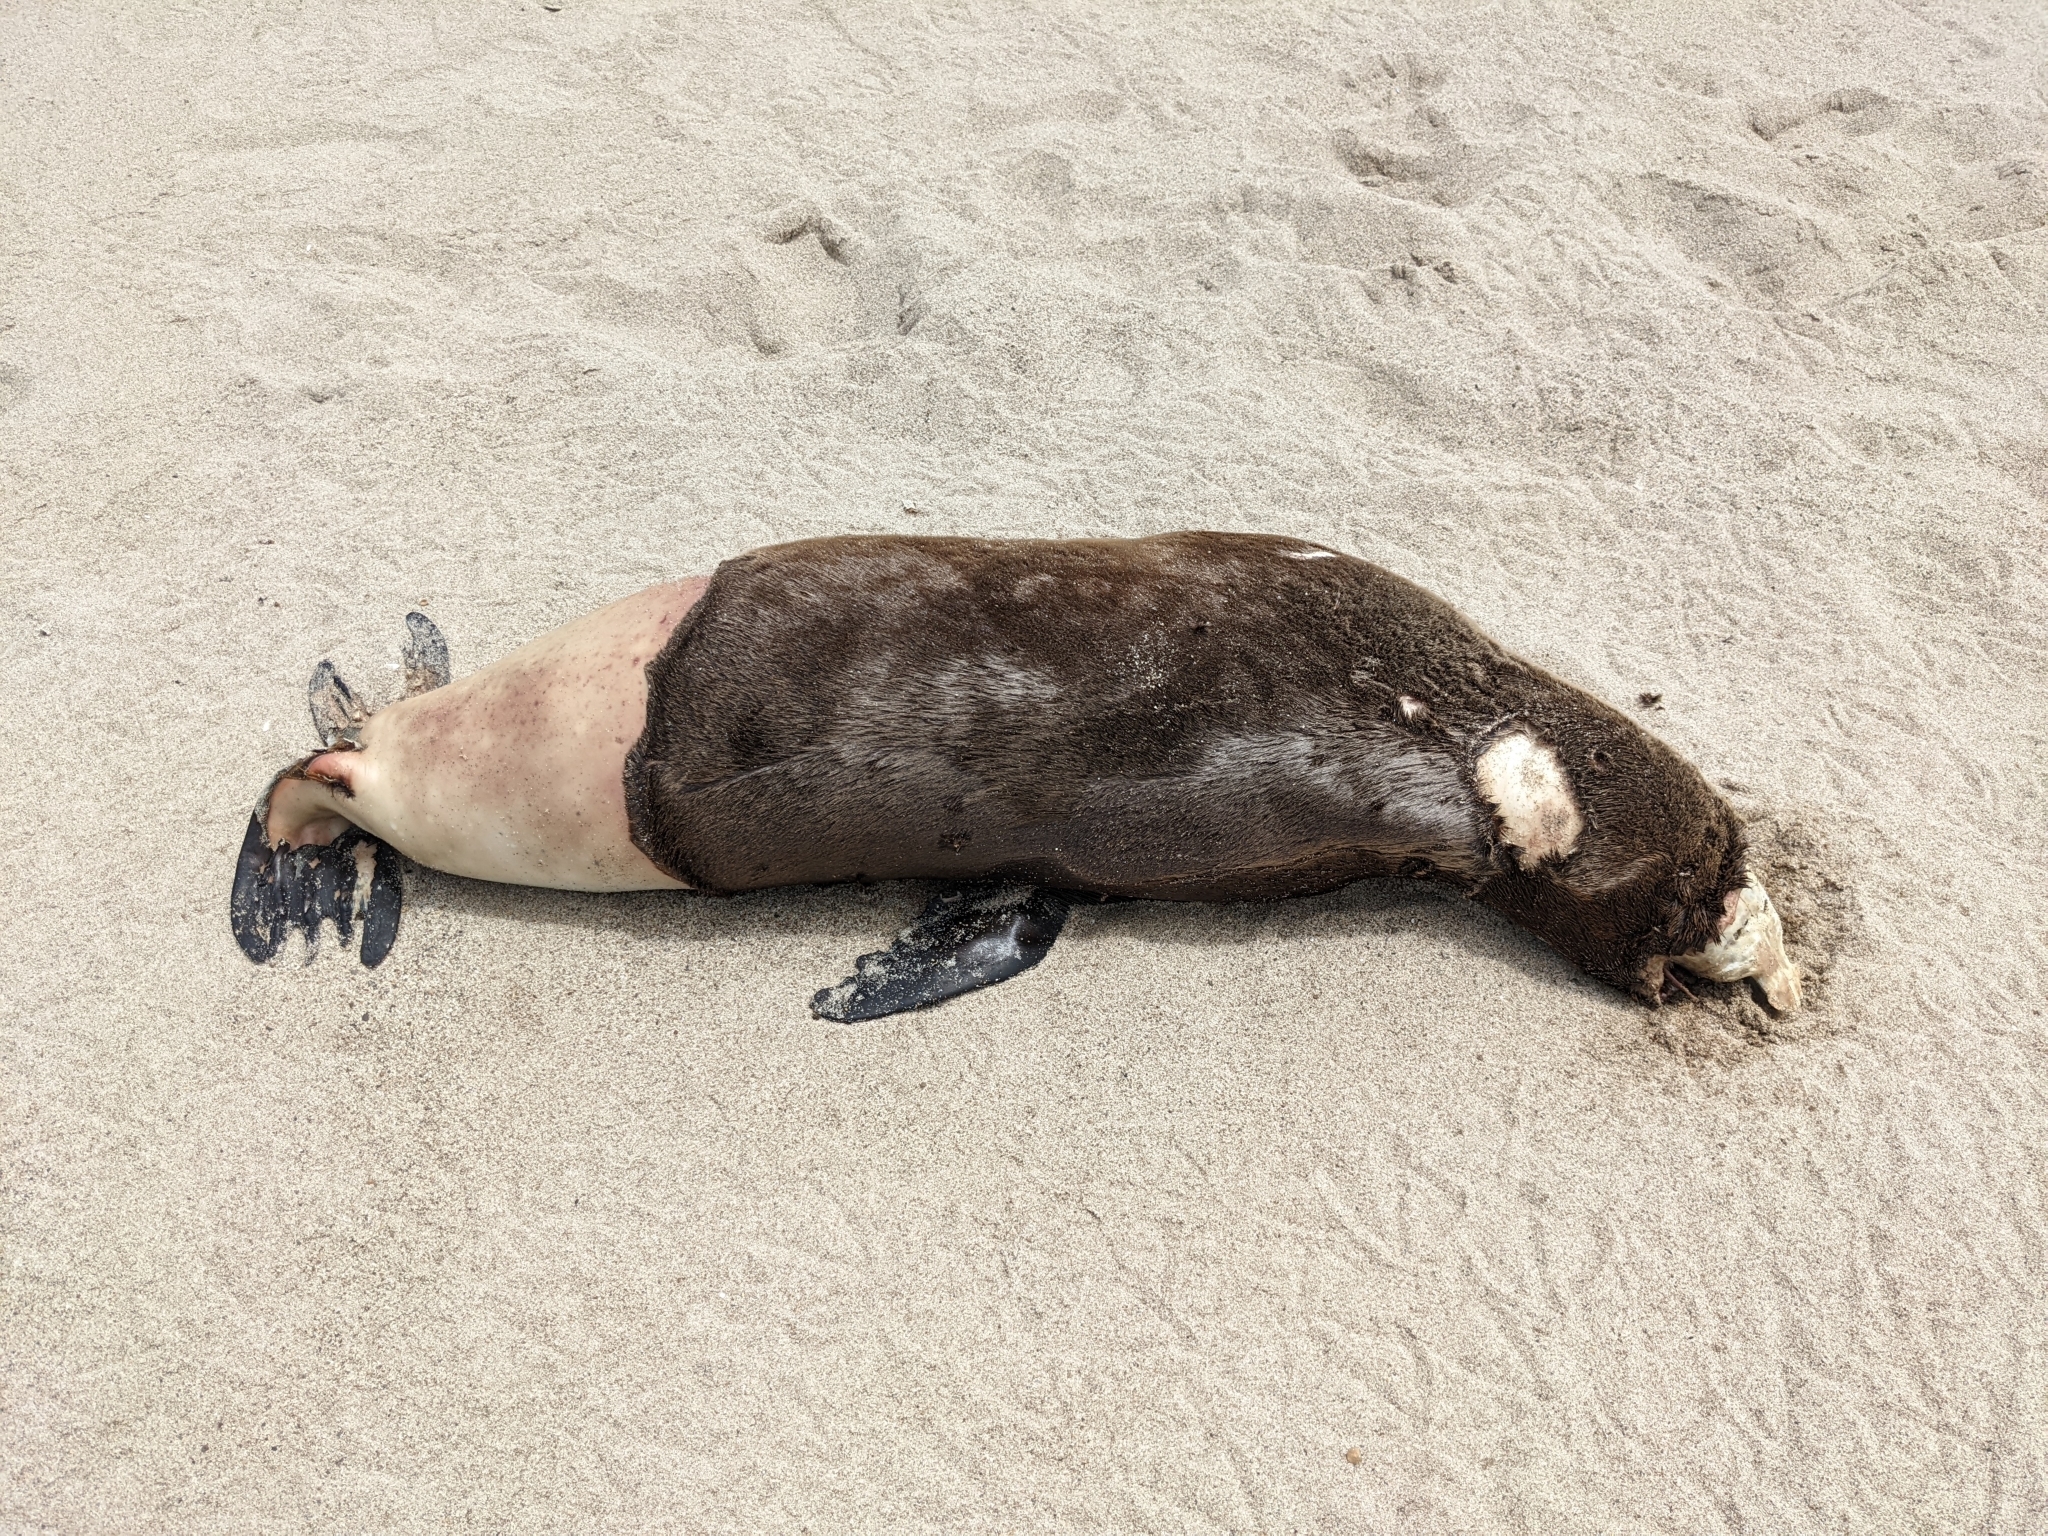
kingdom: Animalia
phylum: Chordata
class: Mammalia
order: Carnivora
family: Otariidae
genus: Zalophus
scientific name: Zalophus californianus
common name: California sea lion
